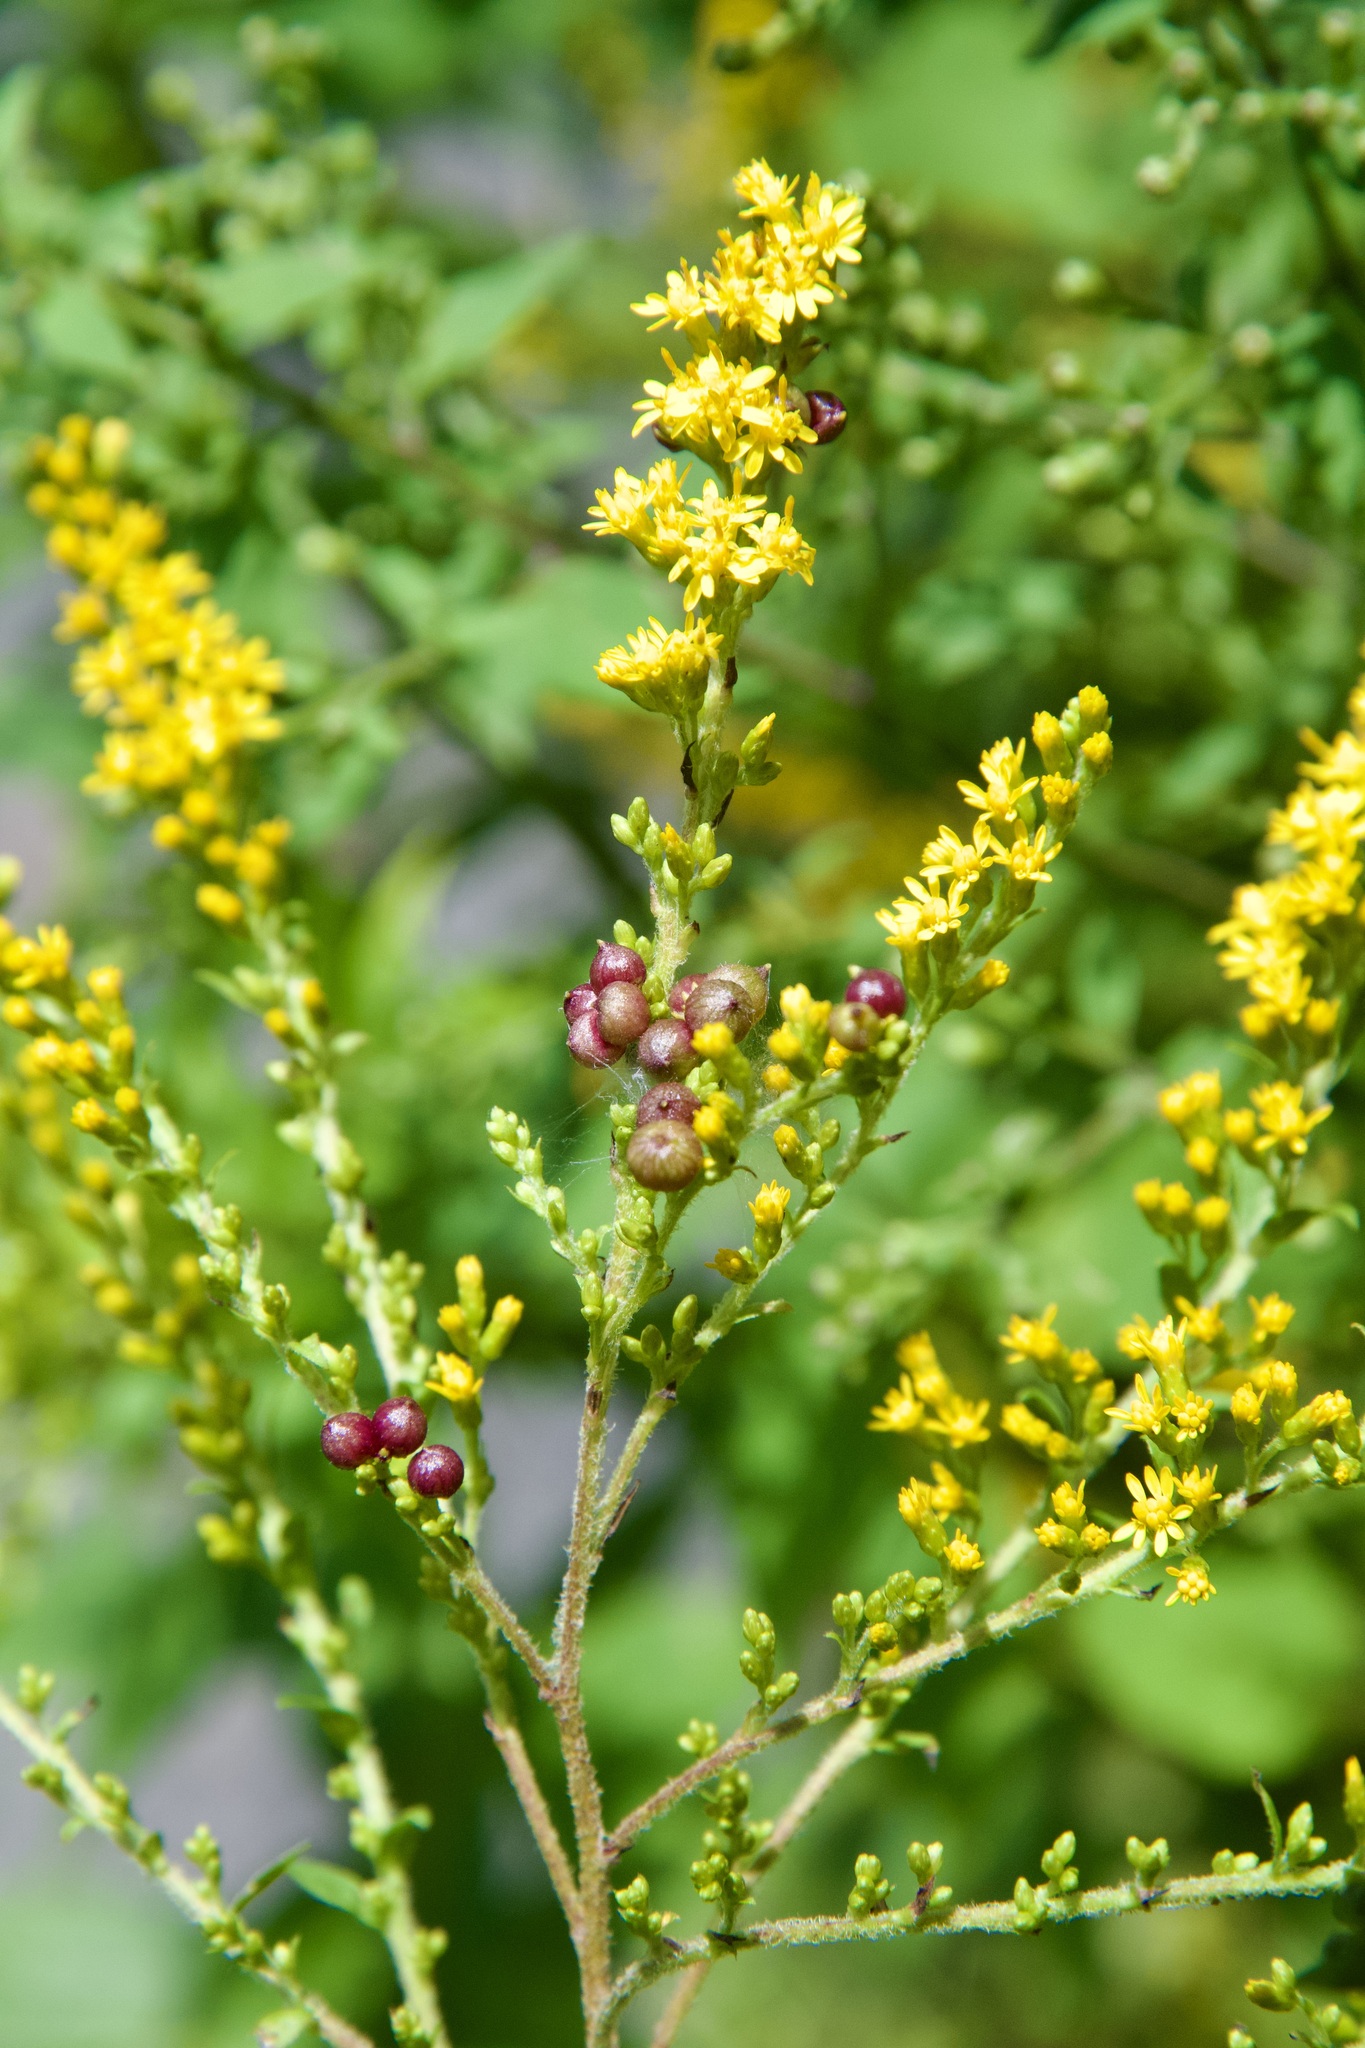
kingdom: Animalia
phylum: Arthropoda
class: Insecta
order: Diptera
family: Cecidomyiidae
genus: Schizomyia
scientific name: Schizomyia racemicola
